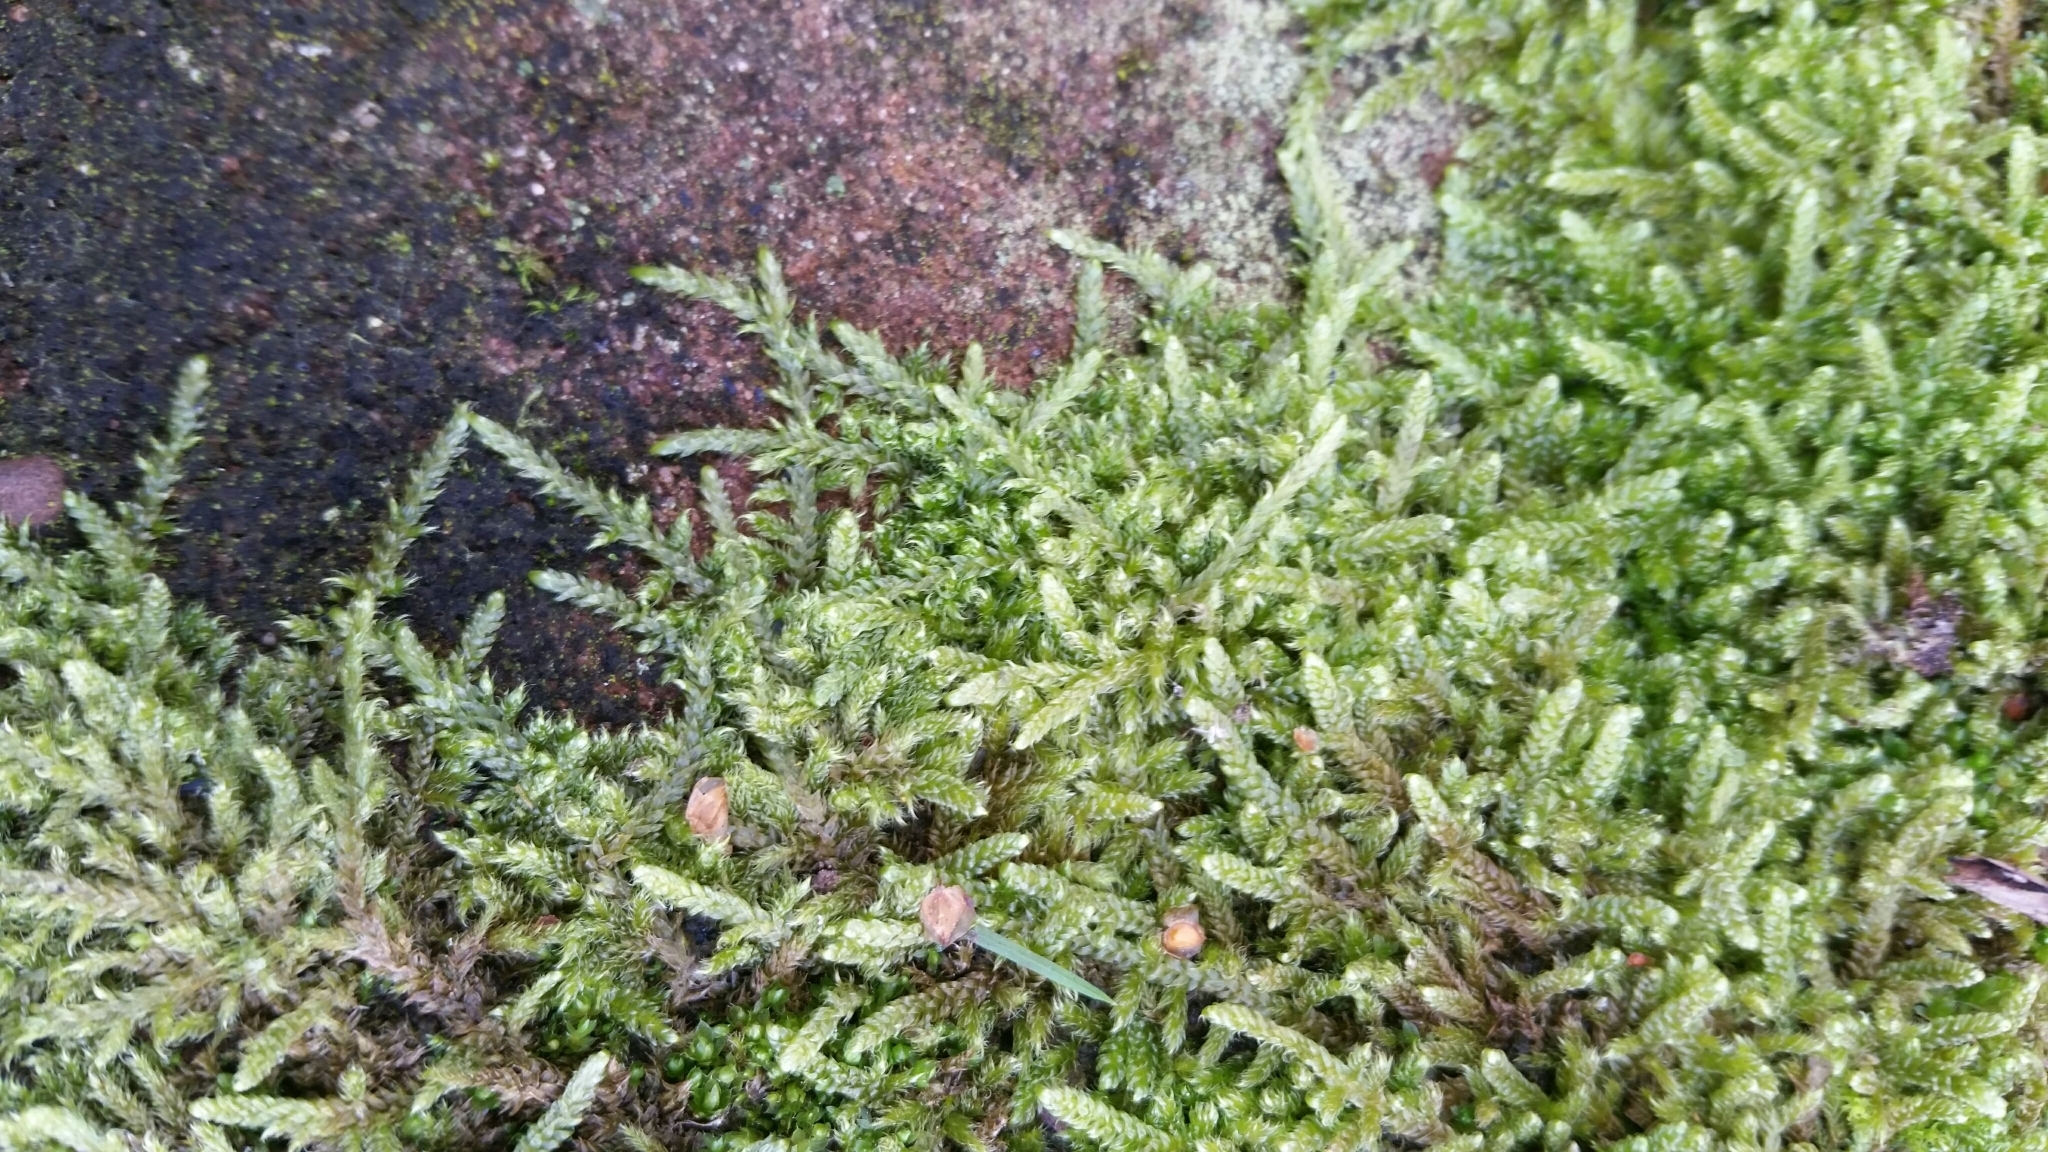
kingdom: Plantae
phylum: Bryophyta
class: Bryopsida
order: Hypnales
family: Hypnaceae
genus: Hypnum
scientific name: Hypnum cupressiforme
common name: Cypress-leaved plait-moss
